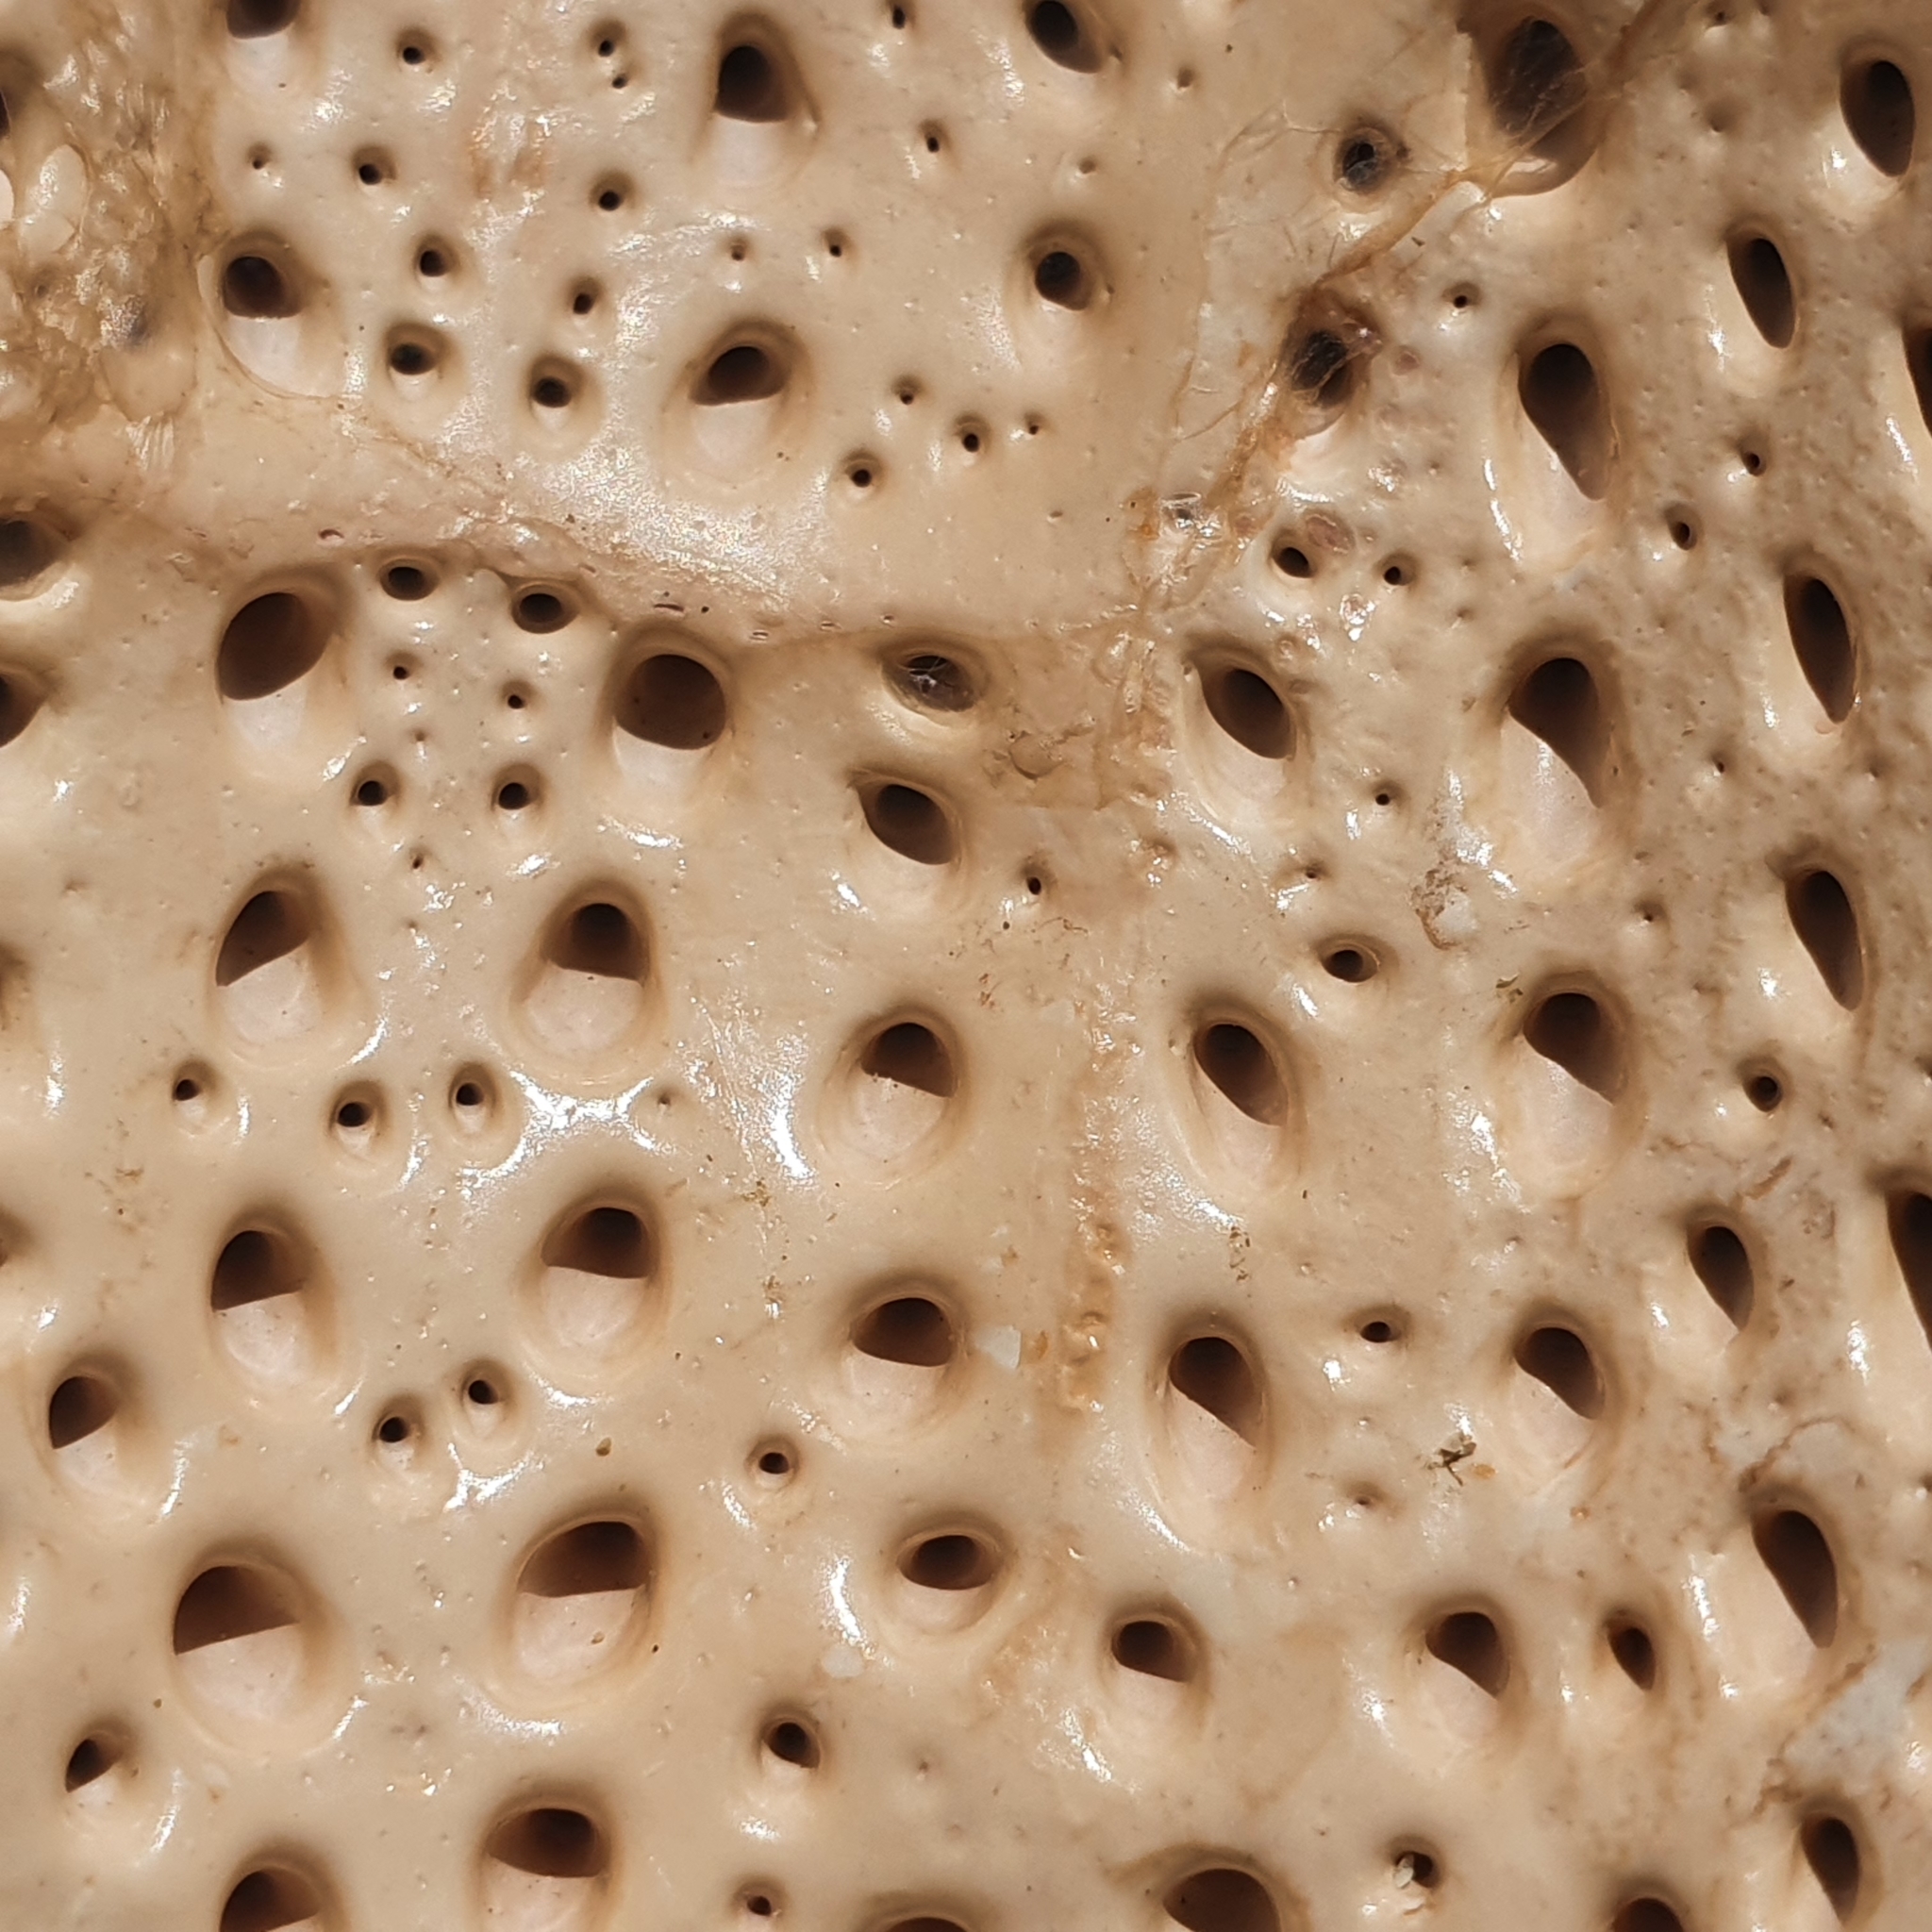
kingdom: Animalia
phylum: Arthropoda
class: Malacostraca
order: Decapoda
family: Palinuridae
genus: Sagmariasus
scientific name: Sagmariasus verreauxi
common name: Green rock lobster
